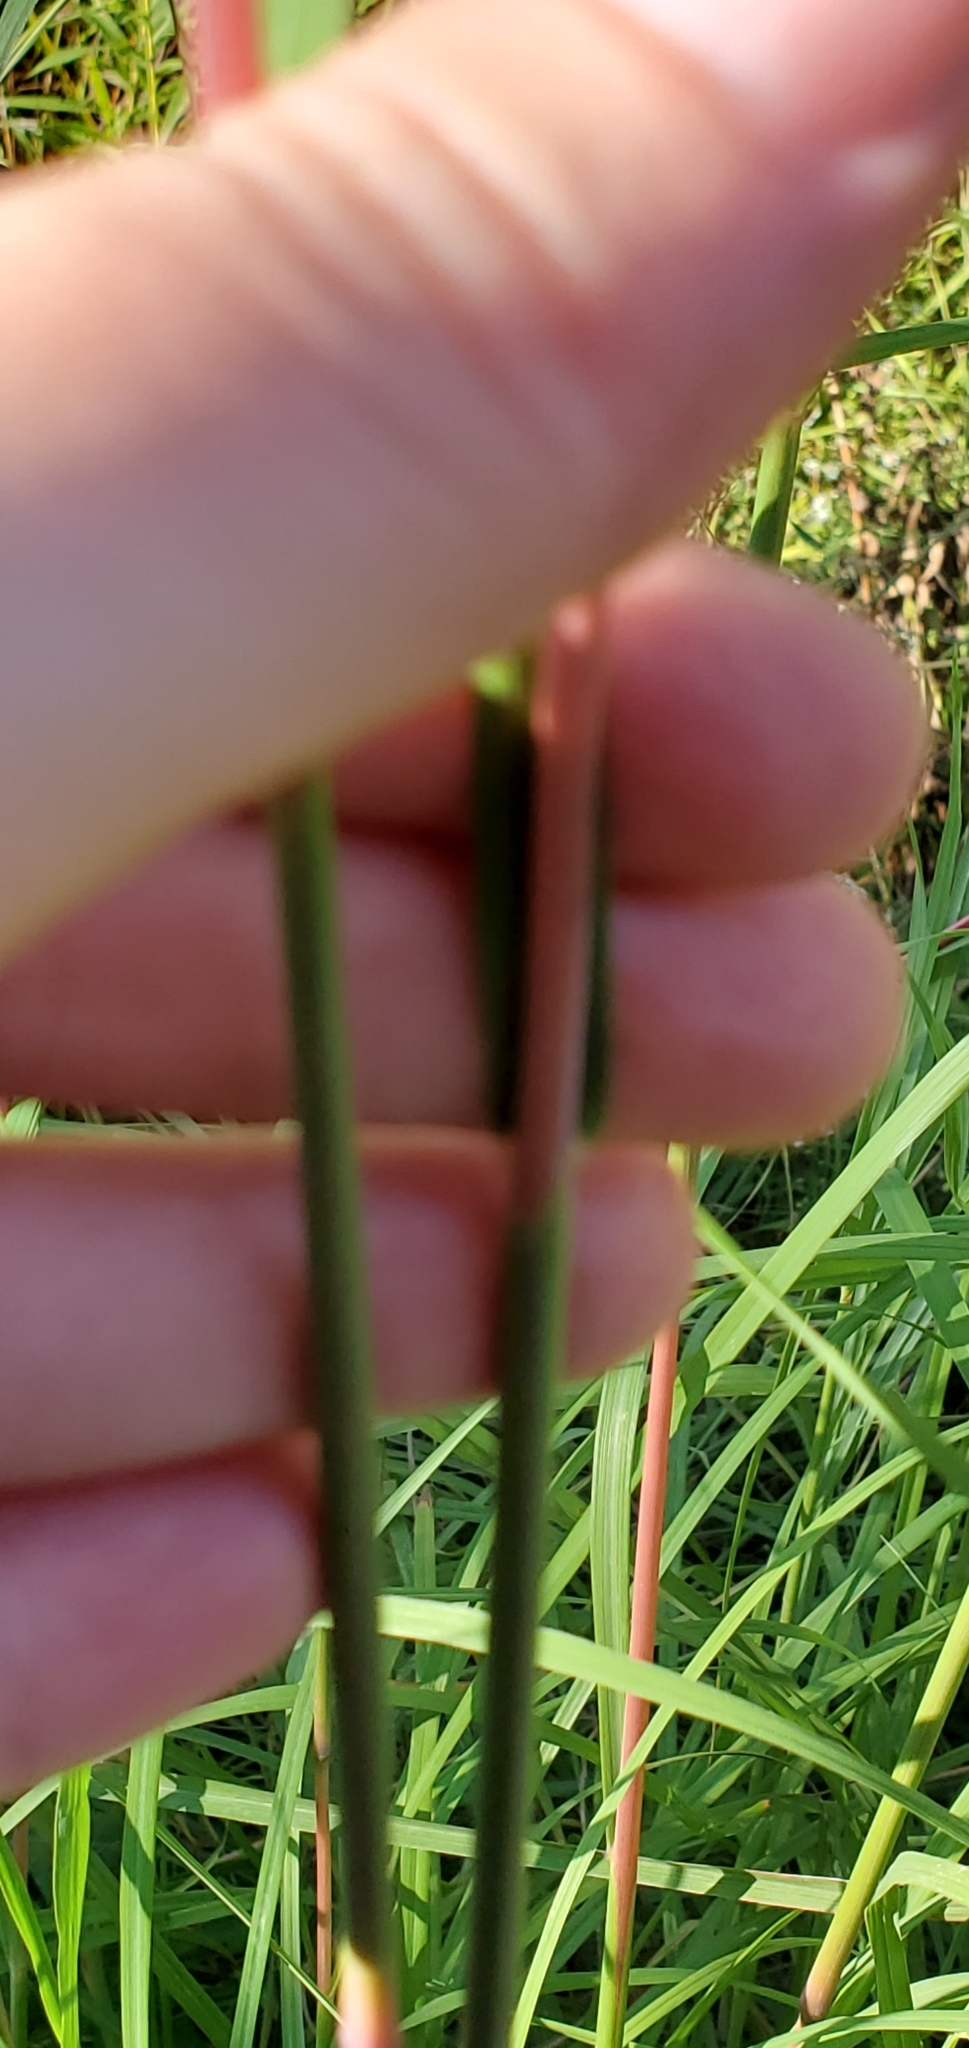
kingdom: Plantae
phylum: Tracheophyta
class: Liliopsida
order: Poales
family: Poaceae
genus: Andropogon
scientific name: Andropogon gerardi
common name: Big bluestem
